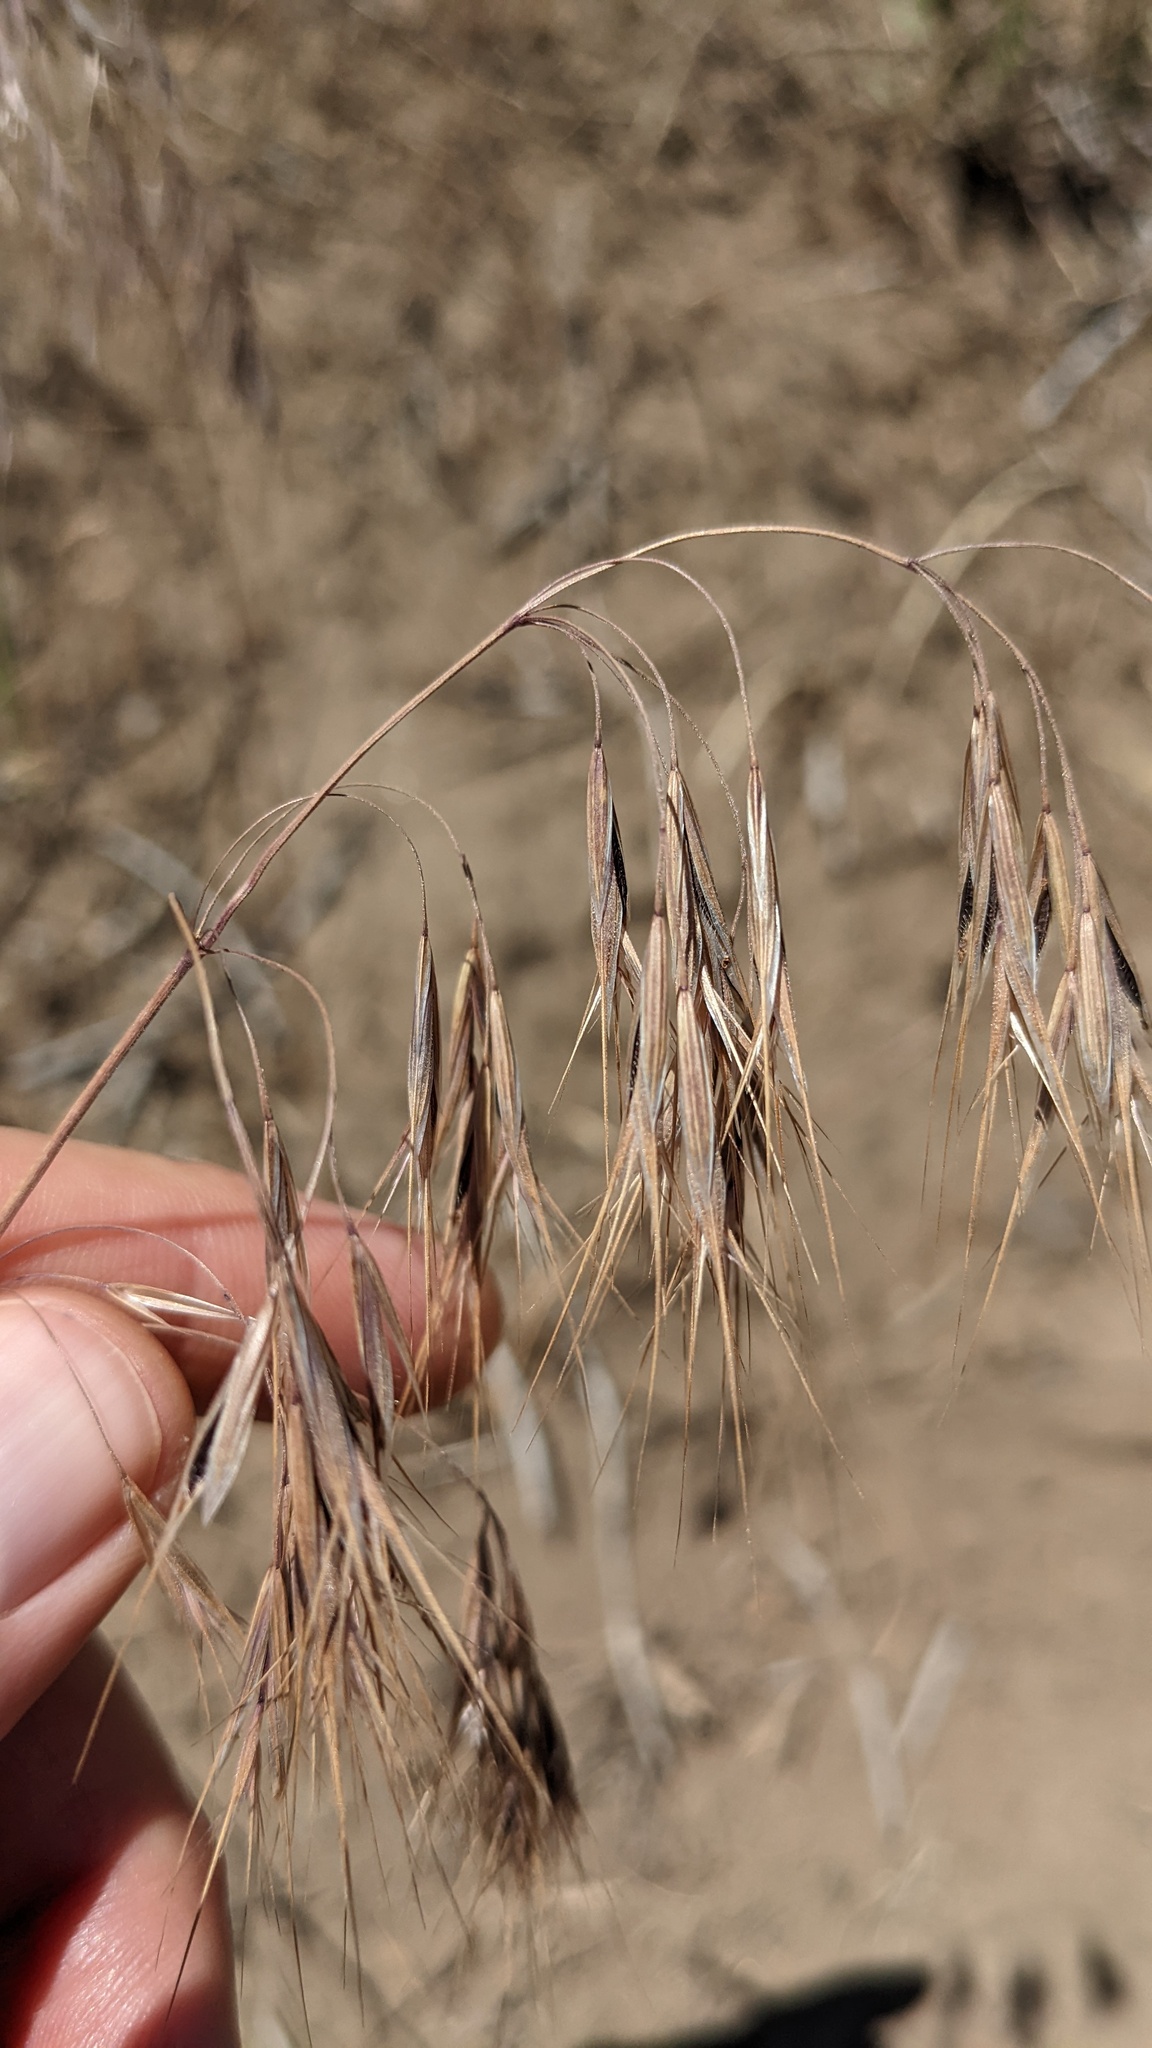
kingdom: Plantae
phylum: Tracheophyta
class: Liliopsida
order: Poales
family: Poaceae
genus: Bromus
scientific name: Bromus tectorum
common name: Cheatgrass
